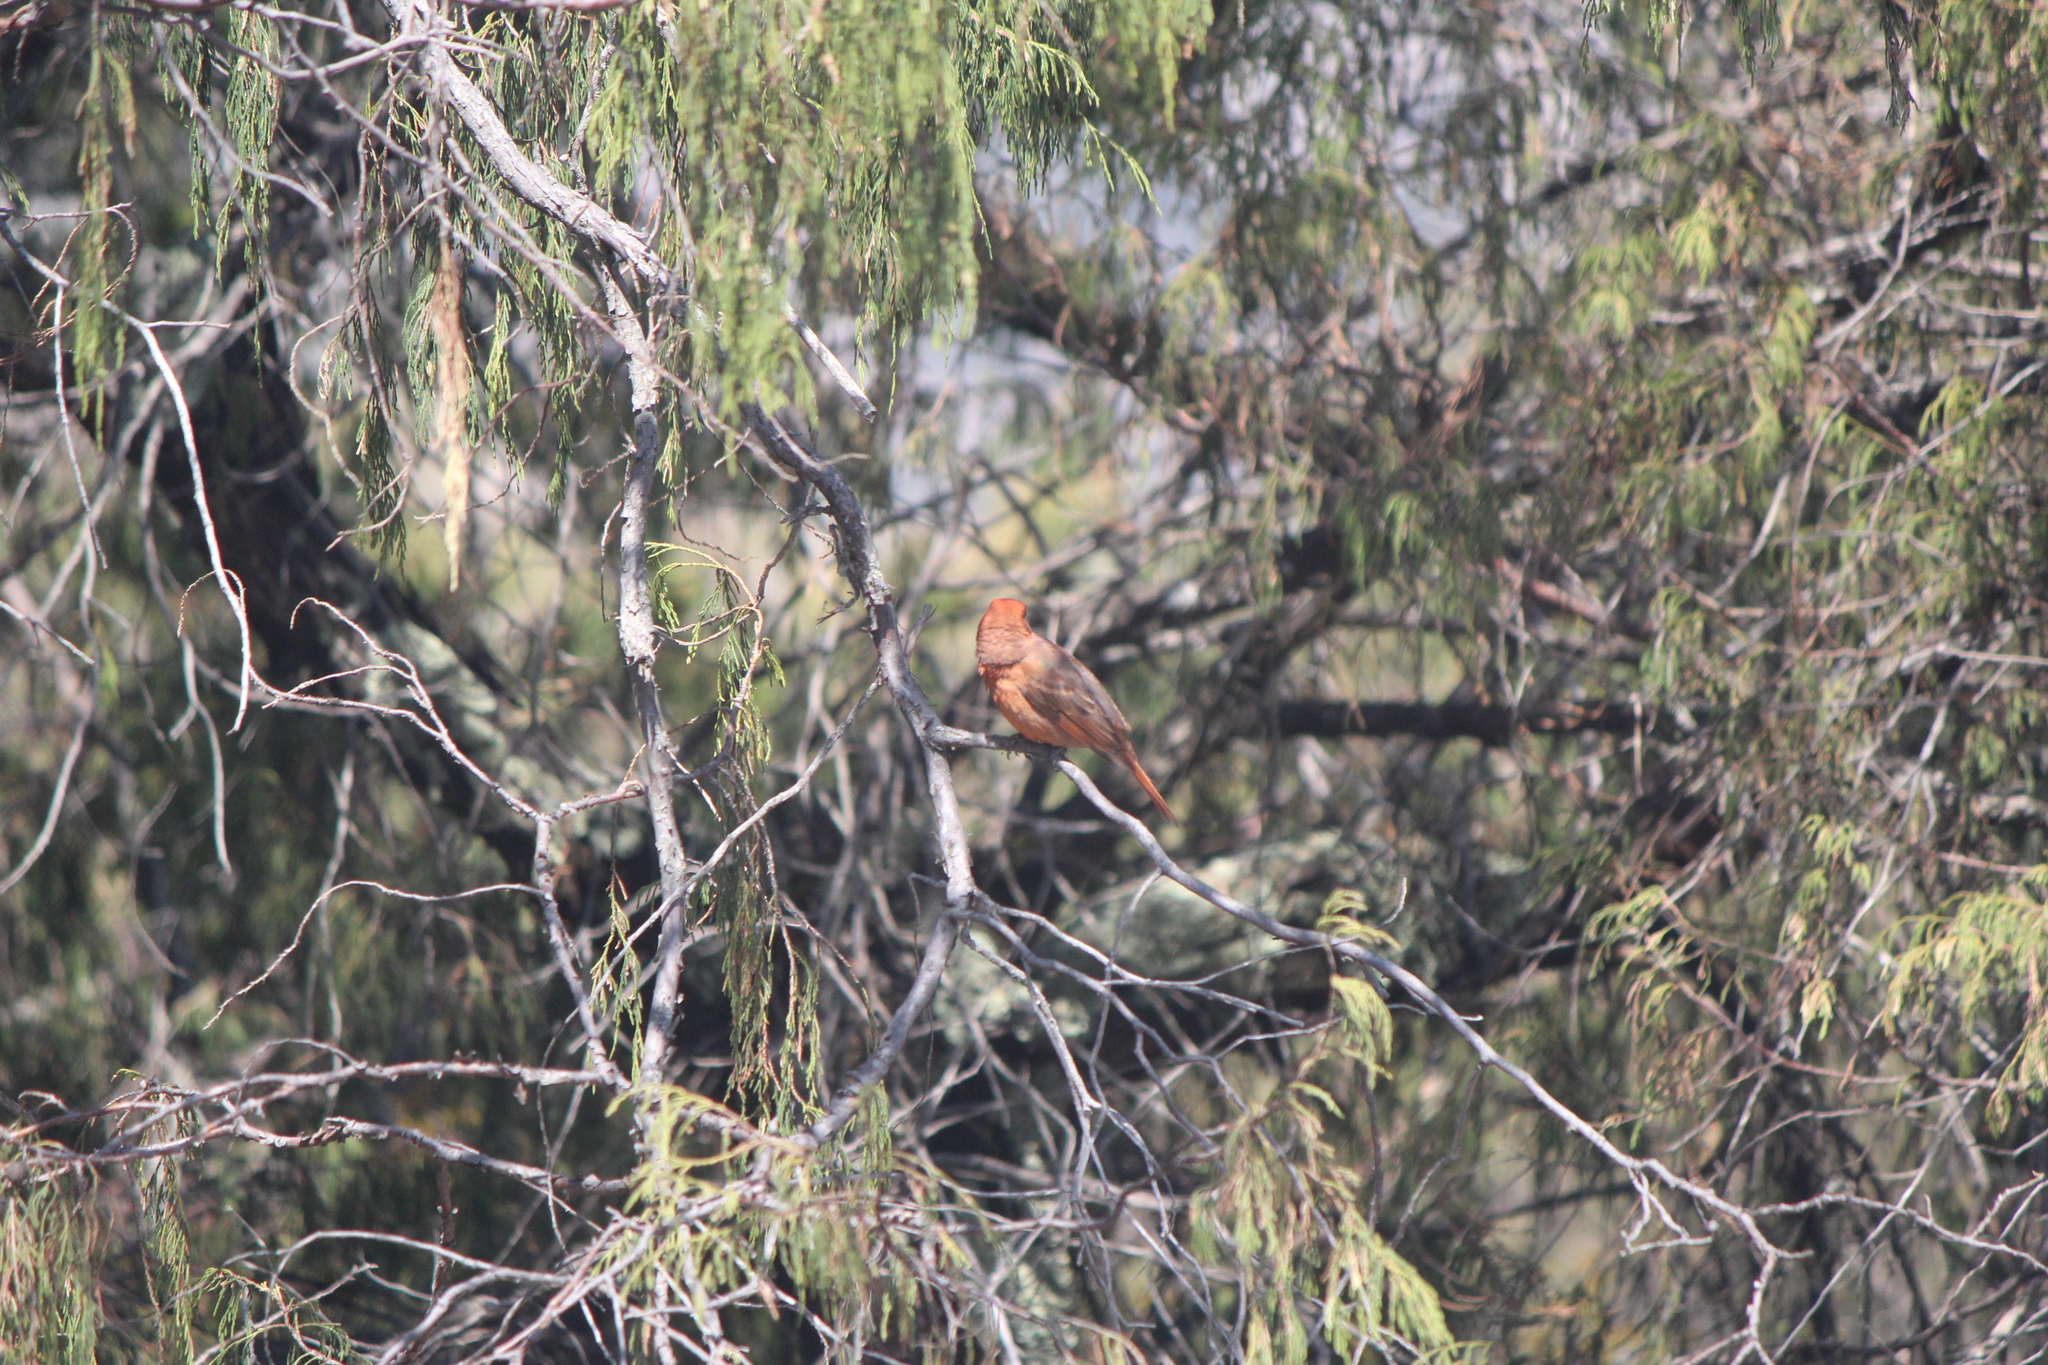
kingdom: Animalia
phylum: Chordata
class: Aves
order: Passeriformes
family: Cardinalidae
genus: Piranga
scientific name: Piranga flava
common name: Red tanager
